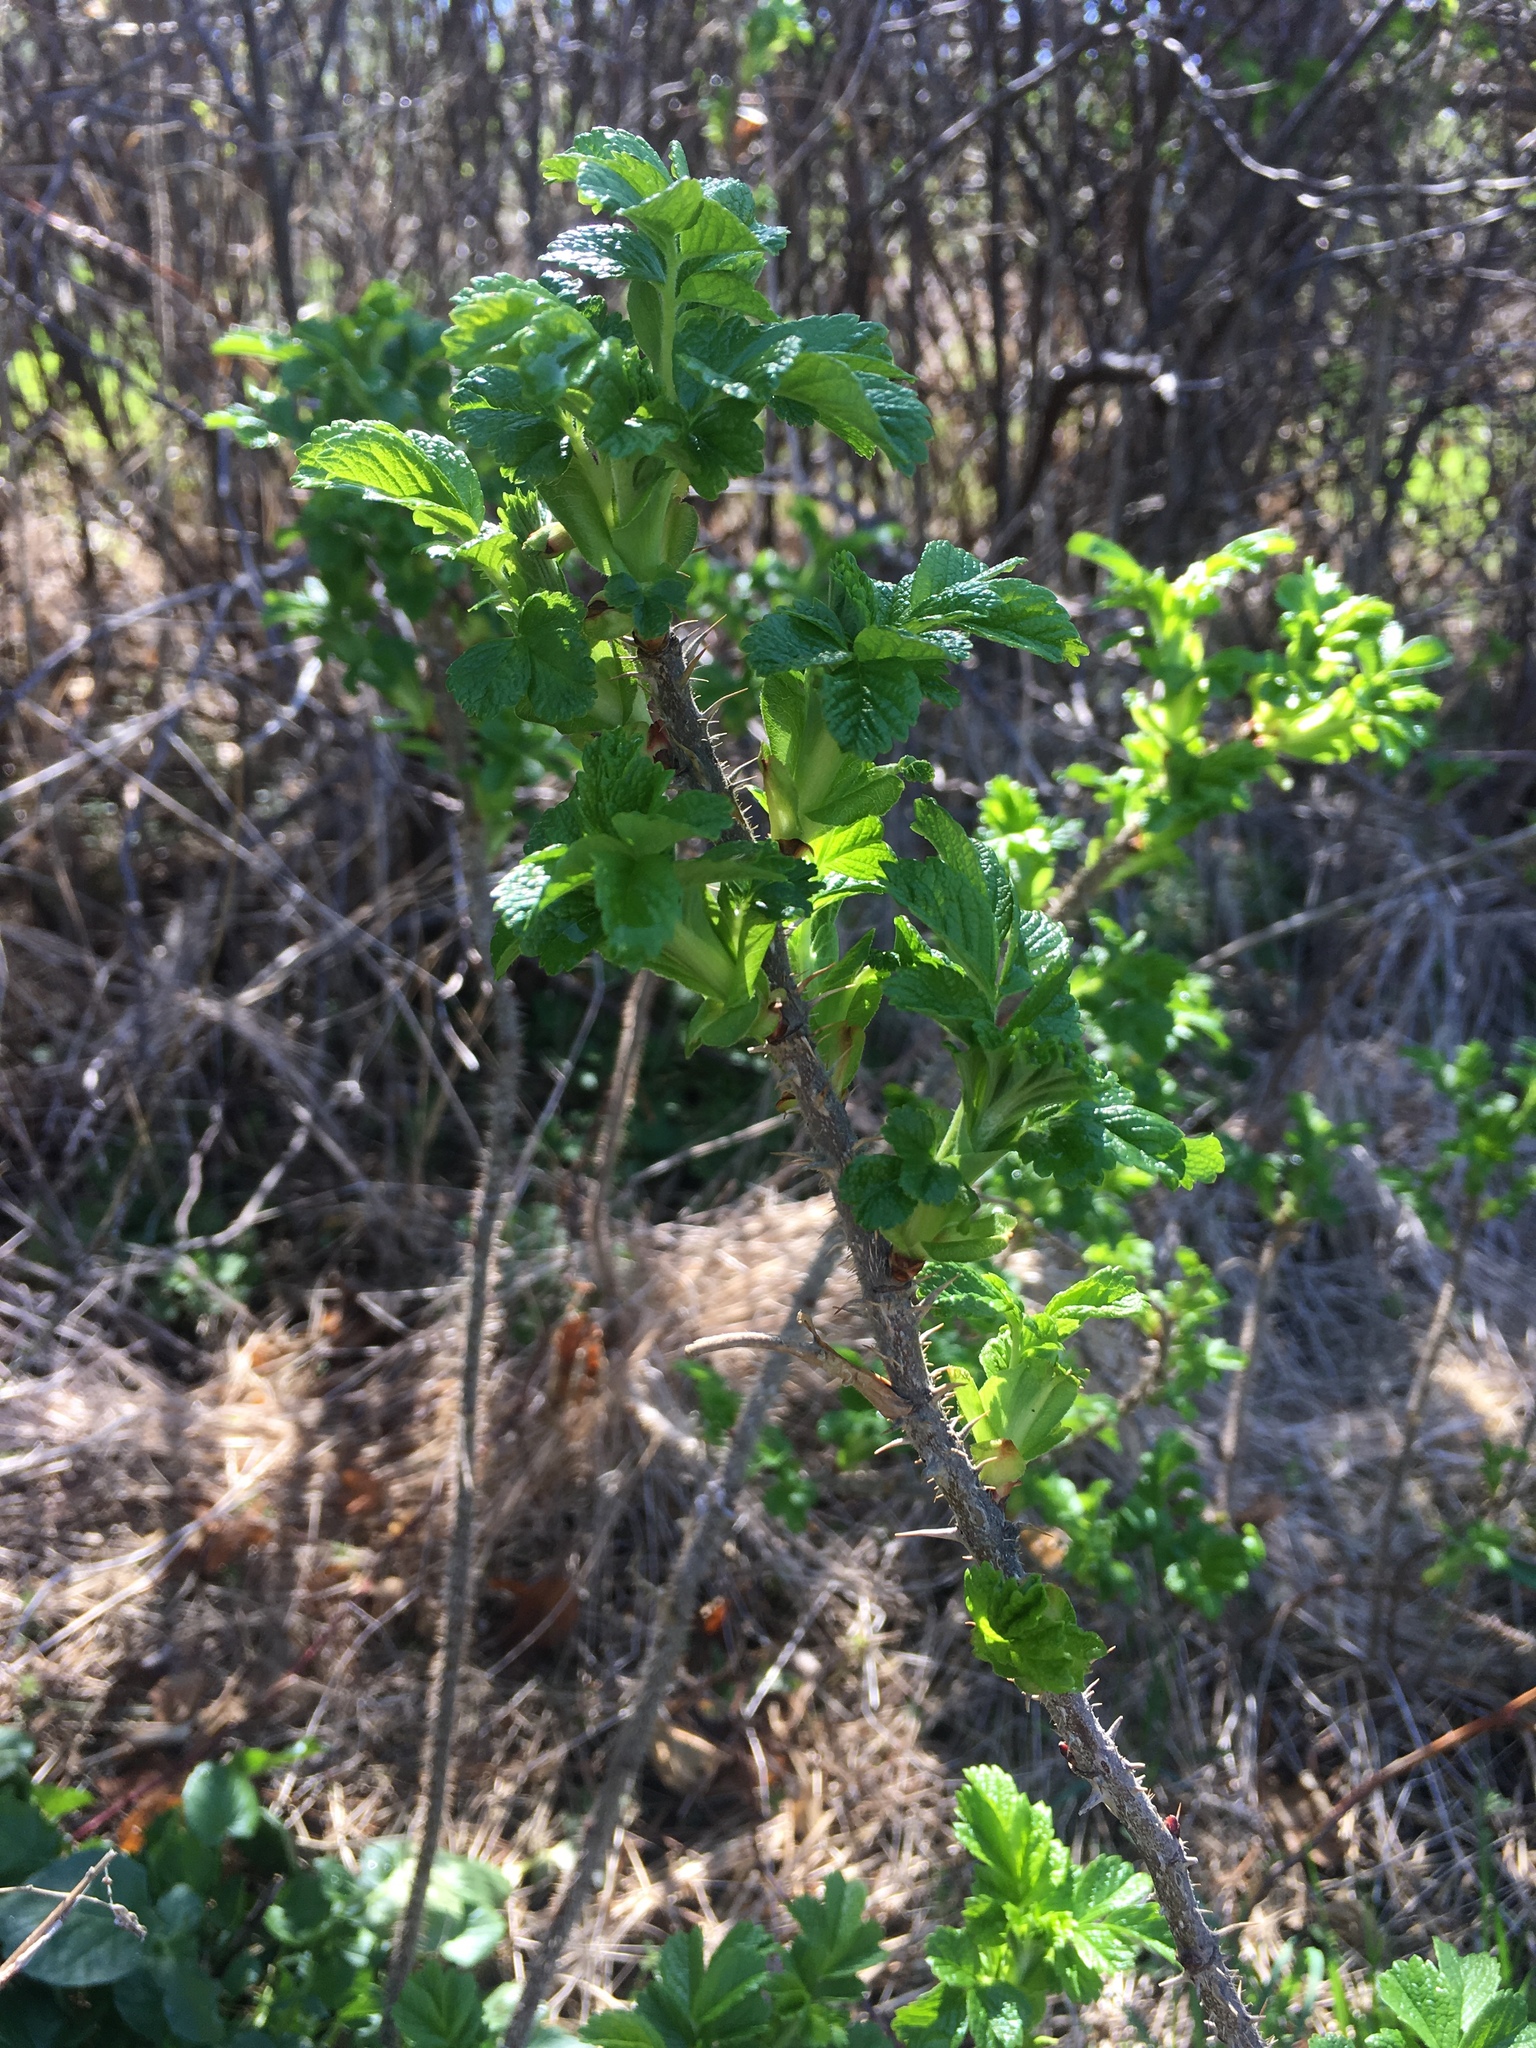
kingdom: Plantae
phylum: Tracheophyta
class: Magnoliopsida
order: Rosales
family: Rosaceae
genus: Rosa
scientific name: Rosa rugosa
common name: Japanese rose
